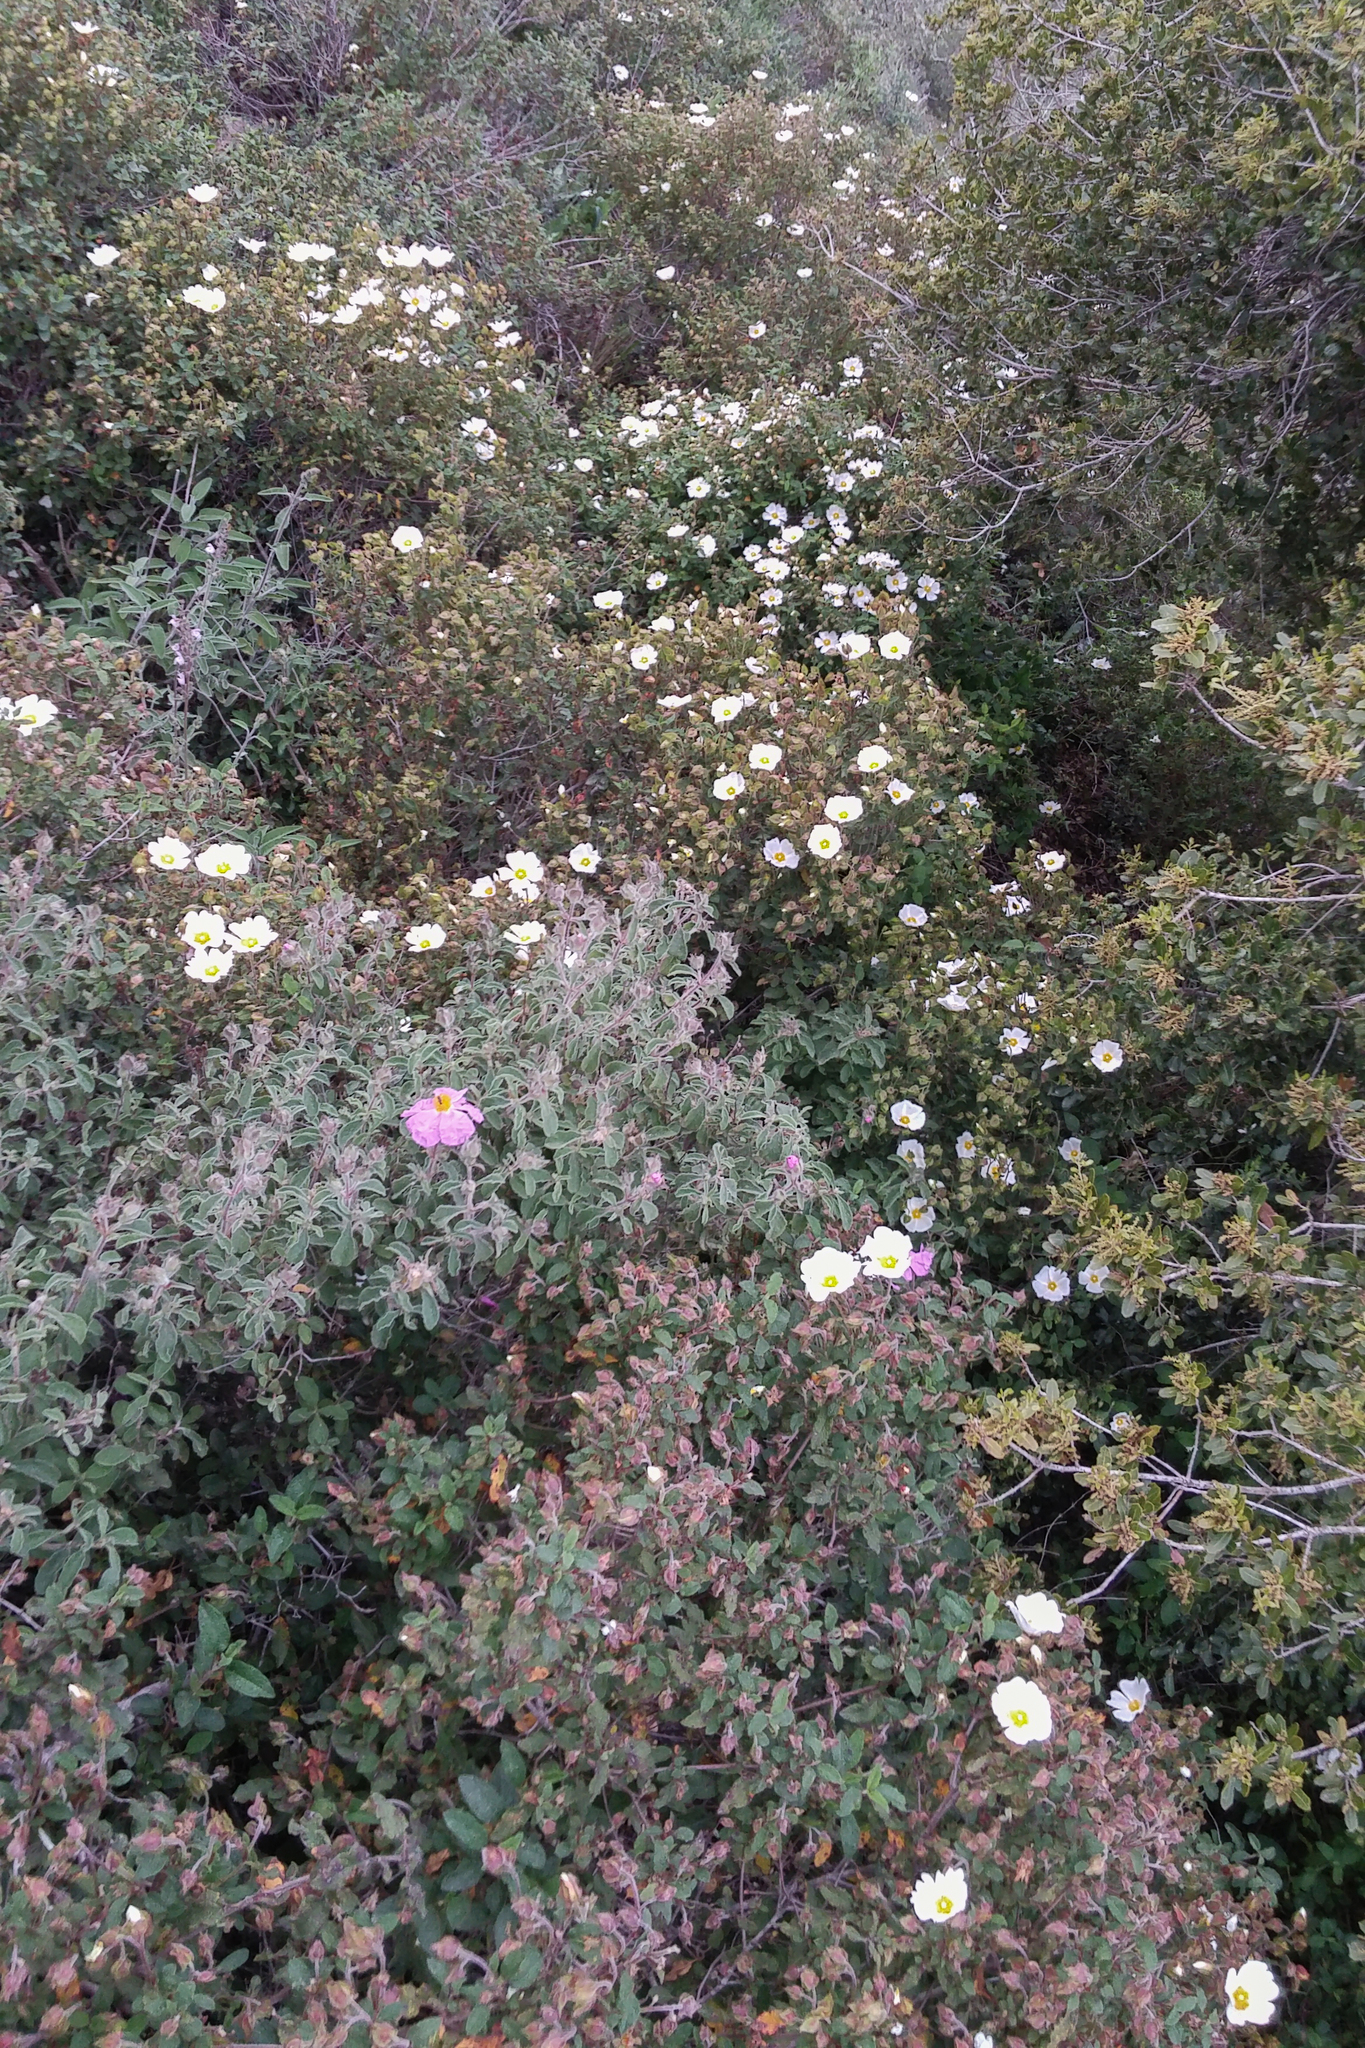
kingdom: Plantae
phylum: Tracheophyta
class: Magnoliopsida
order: Malvales
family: Cistaceae
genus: Cistus
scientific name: Cistus salviifolius
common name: Salvia cistus
